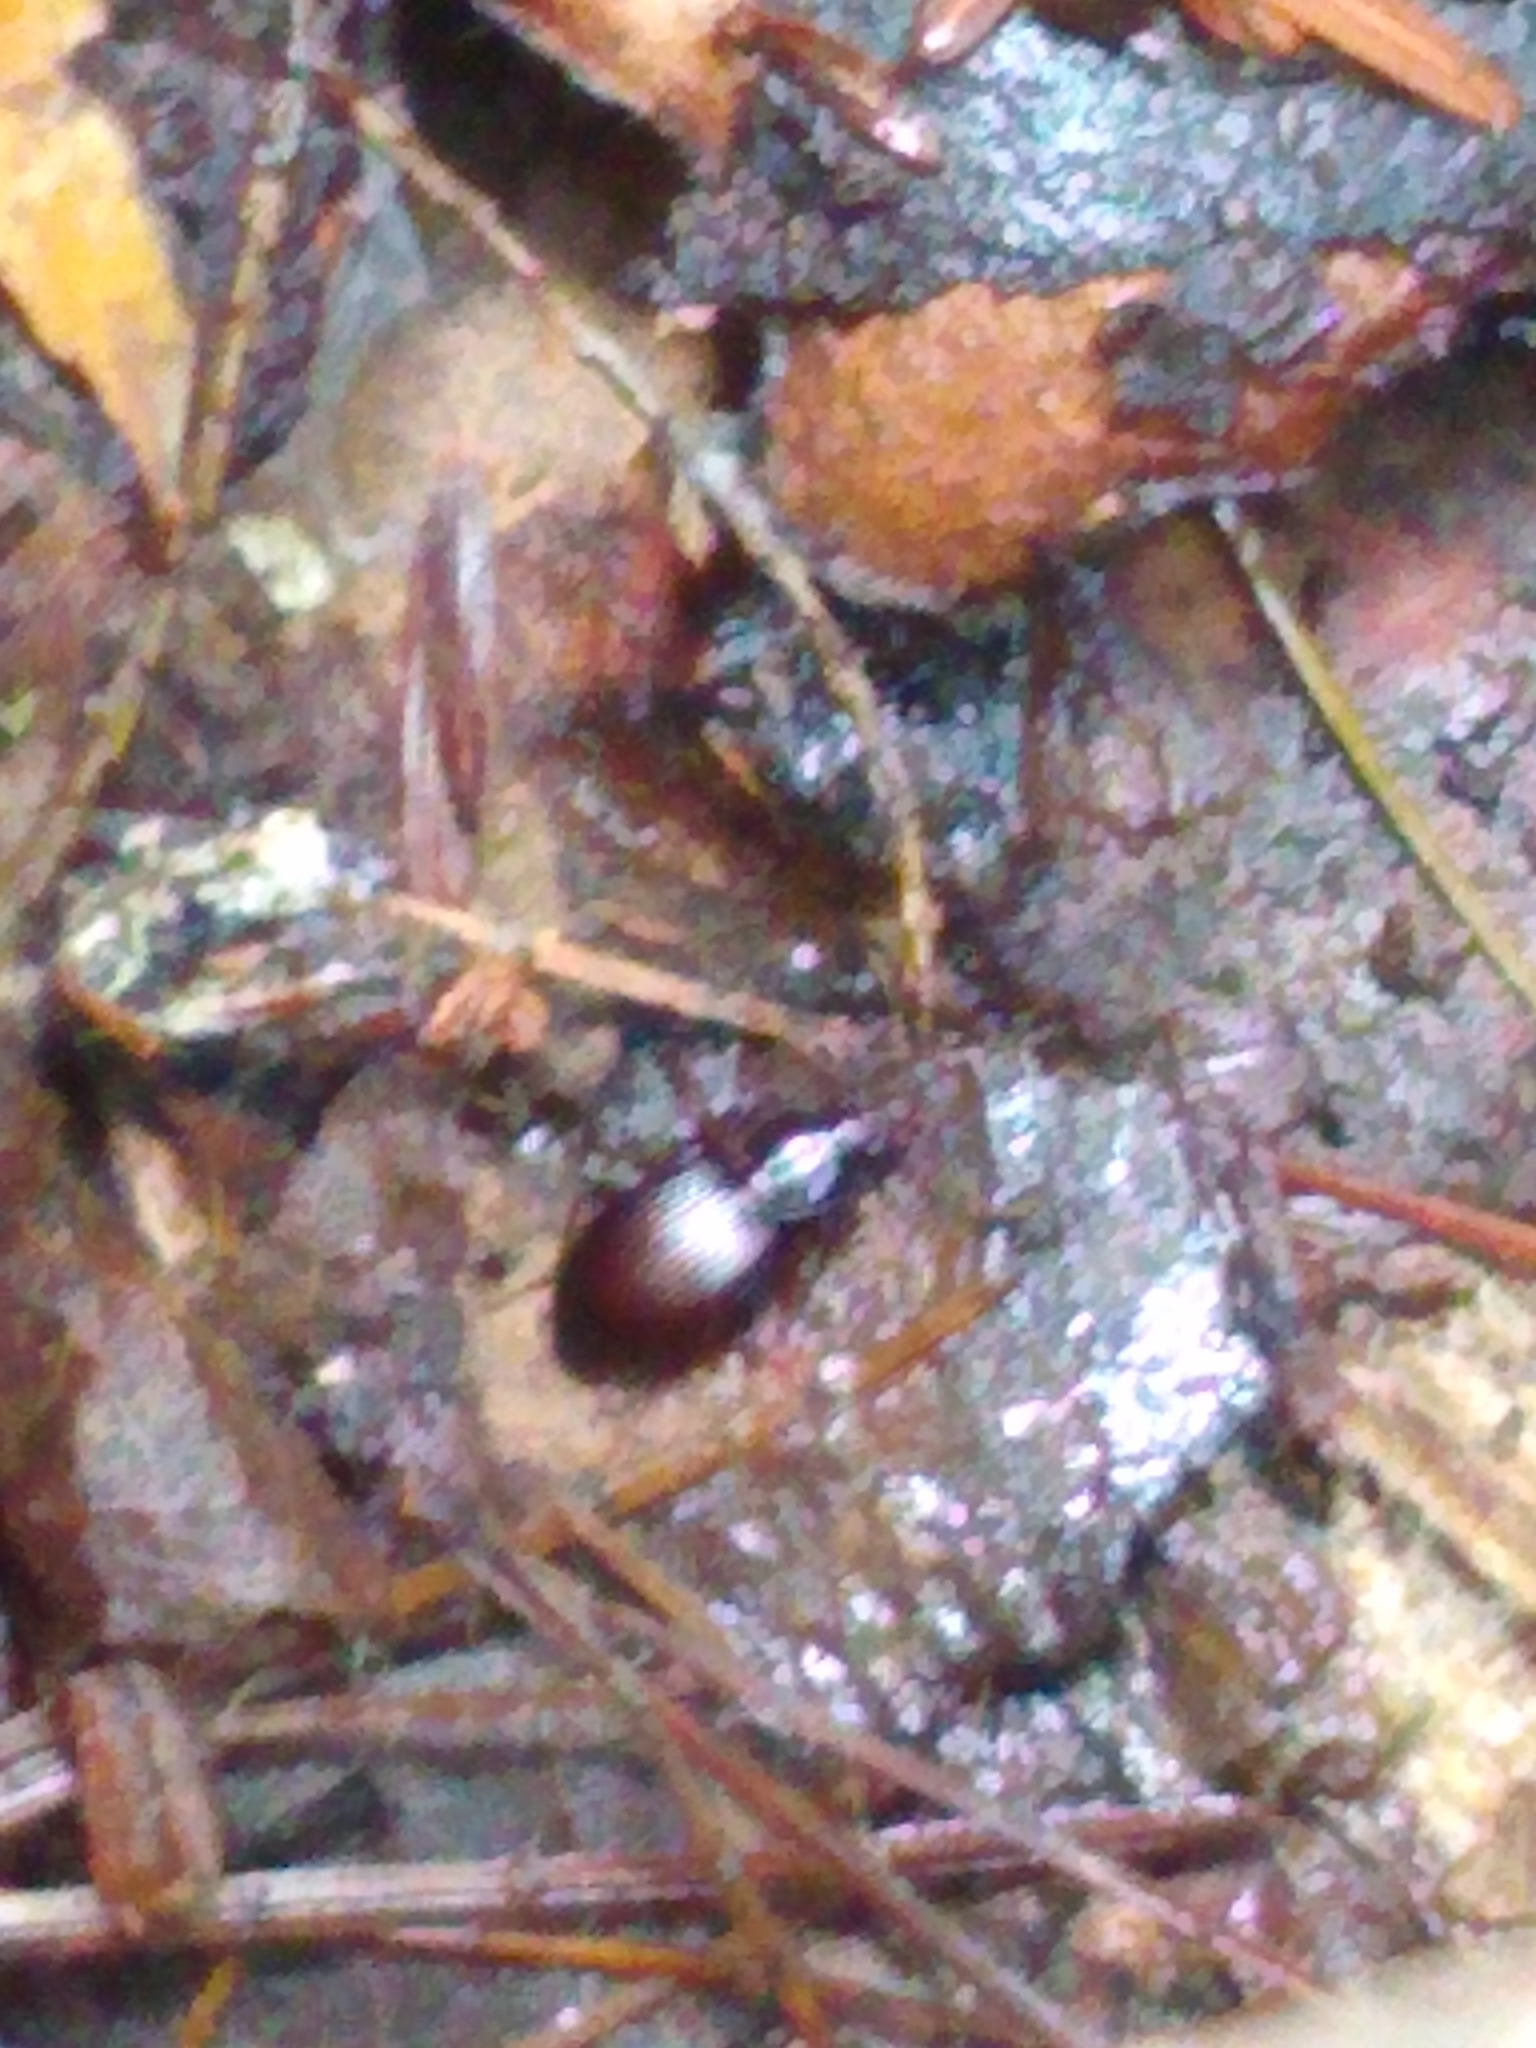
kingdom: Animalia
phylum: Arthropoda
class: Insecta
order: Coleoptera
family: Carabidae
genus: Gastrellarius
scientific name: Gastrellarius honestus
